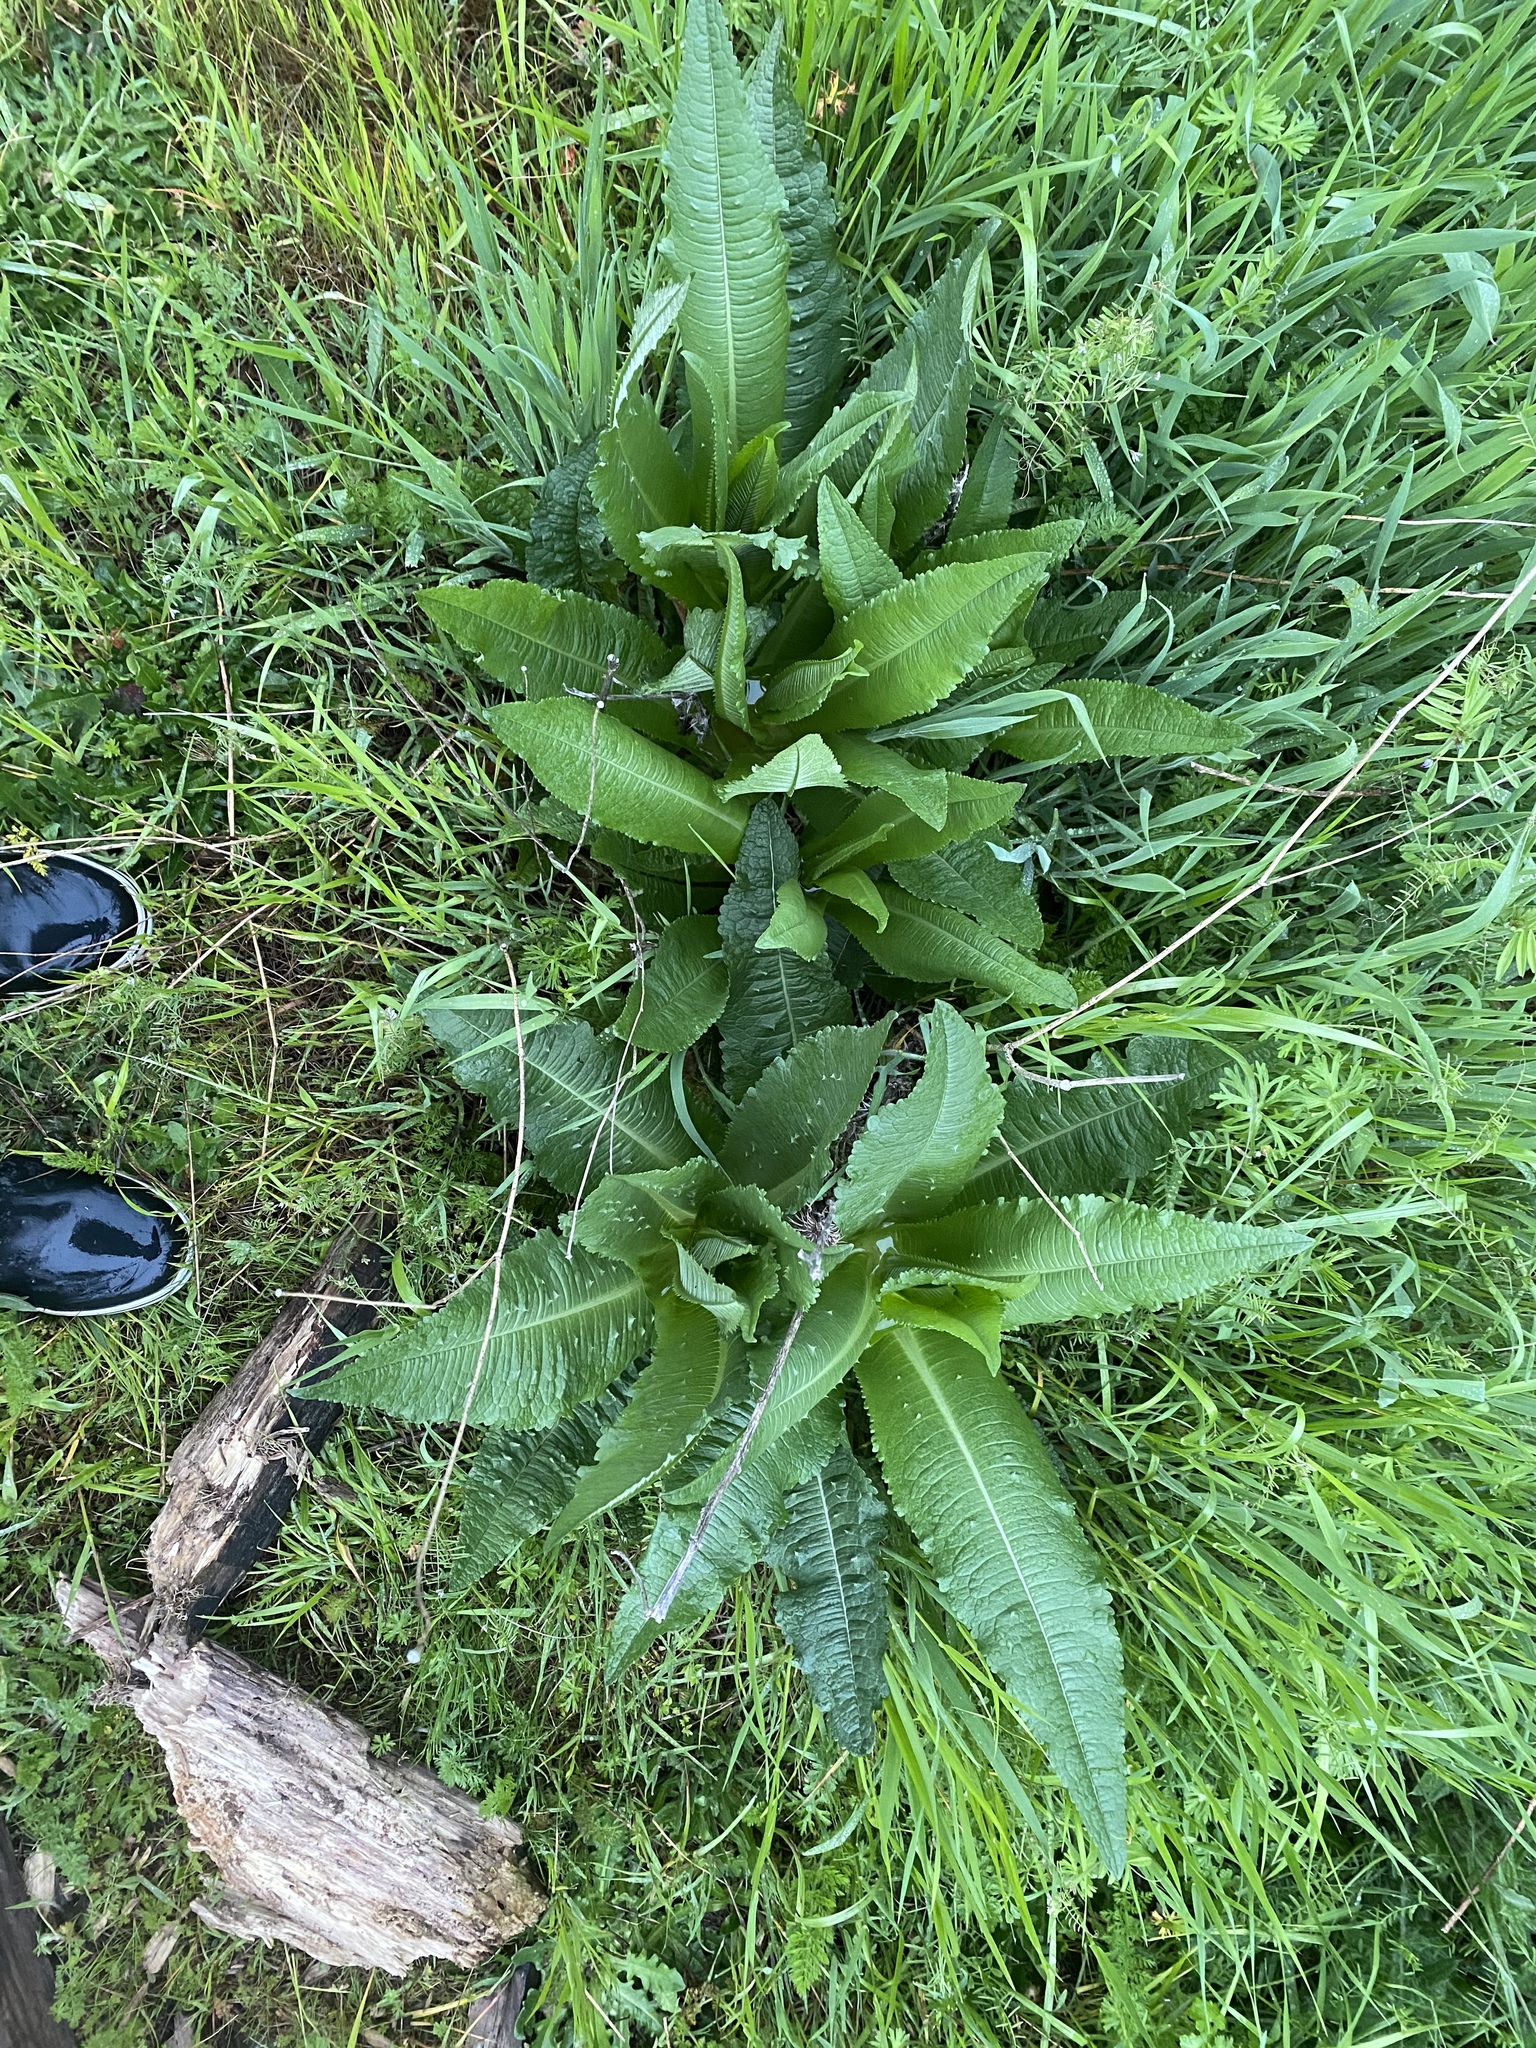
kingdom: Plantae
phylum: Tracheophyta
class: Magnoliopsida
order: Dipsacales
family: Caprifoliaceae
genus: Dipsacus
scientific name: Dipsacus fullonum
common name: Teasel
